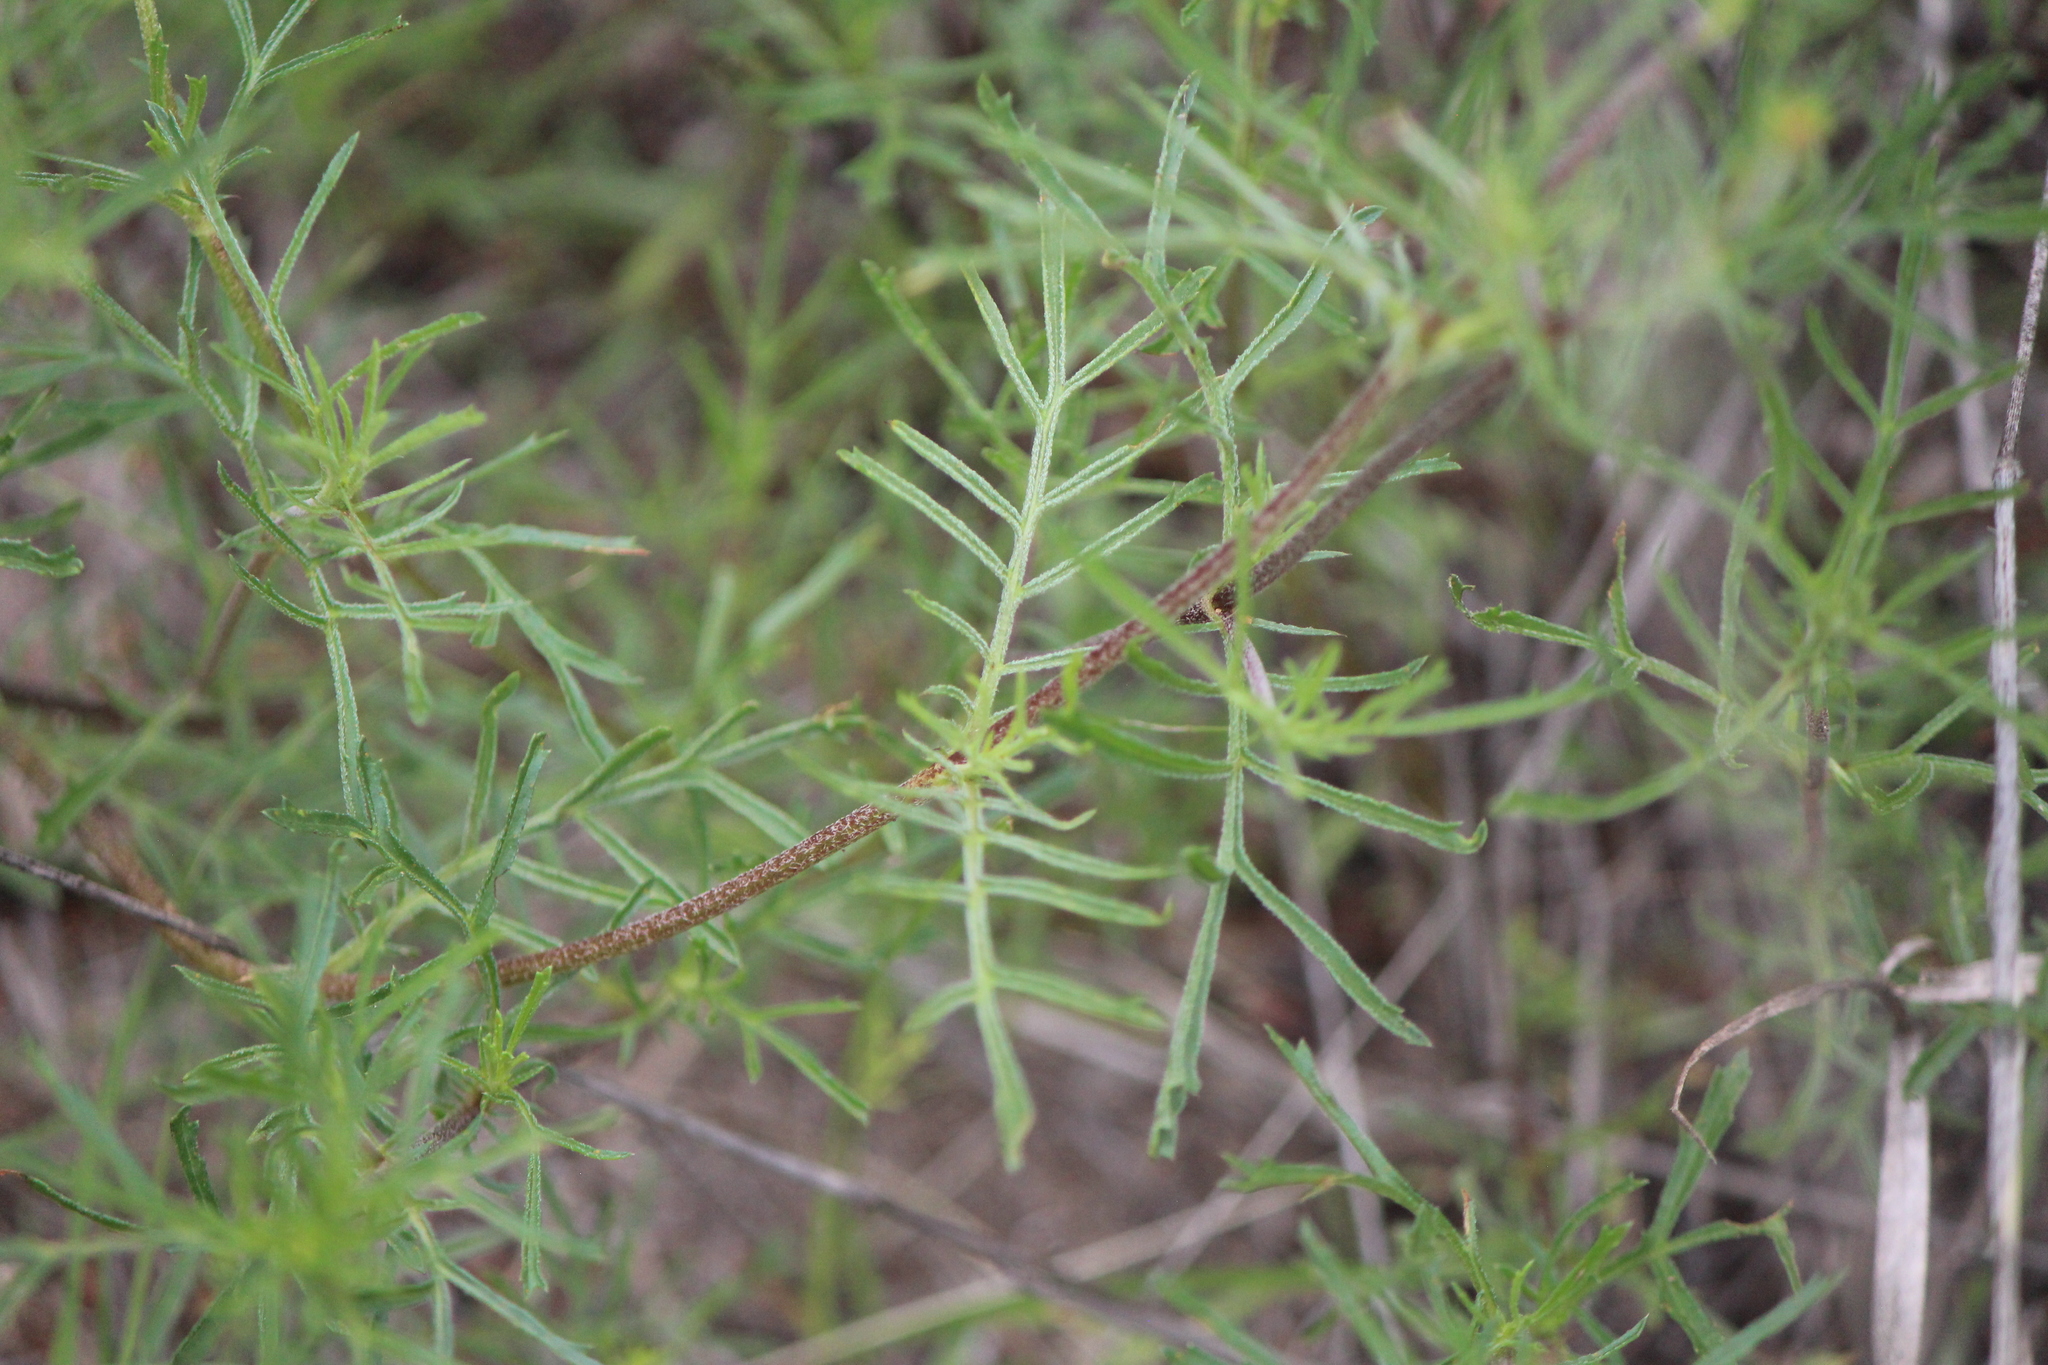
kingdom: Plantae
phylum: Tracheophyta
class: Magnoliopsida
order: Asterales
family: Asteraceae
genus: Dyssodia
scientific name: Dyssodia tagetiflora
